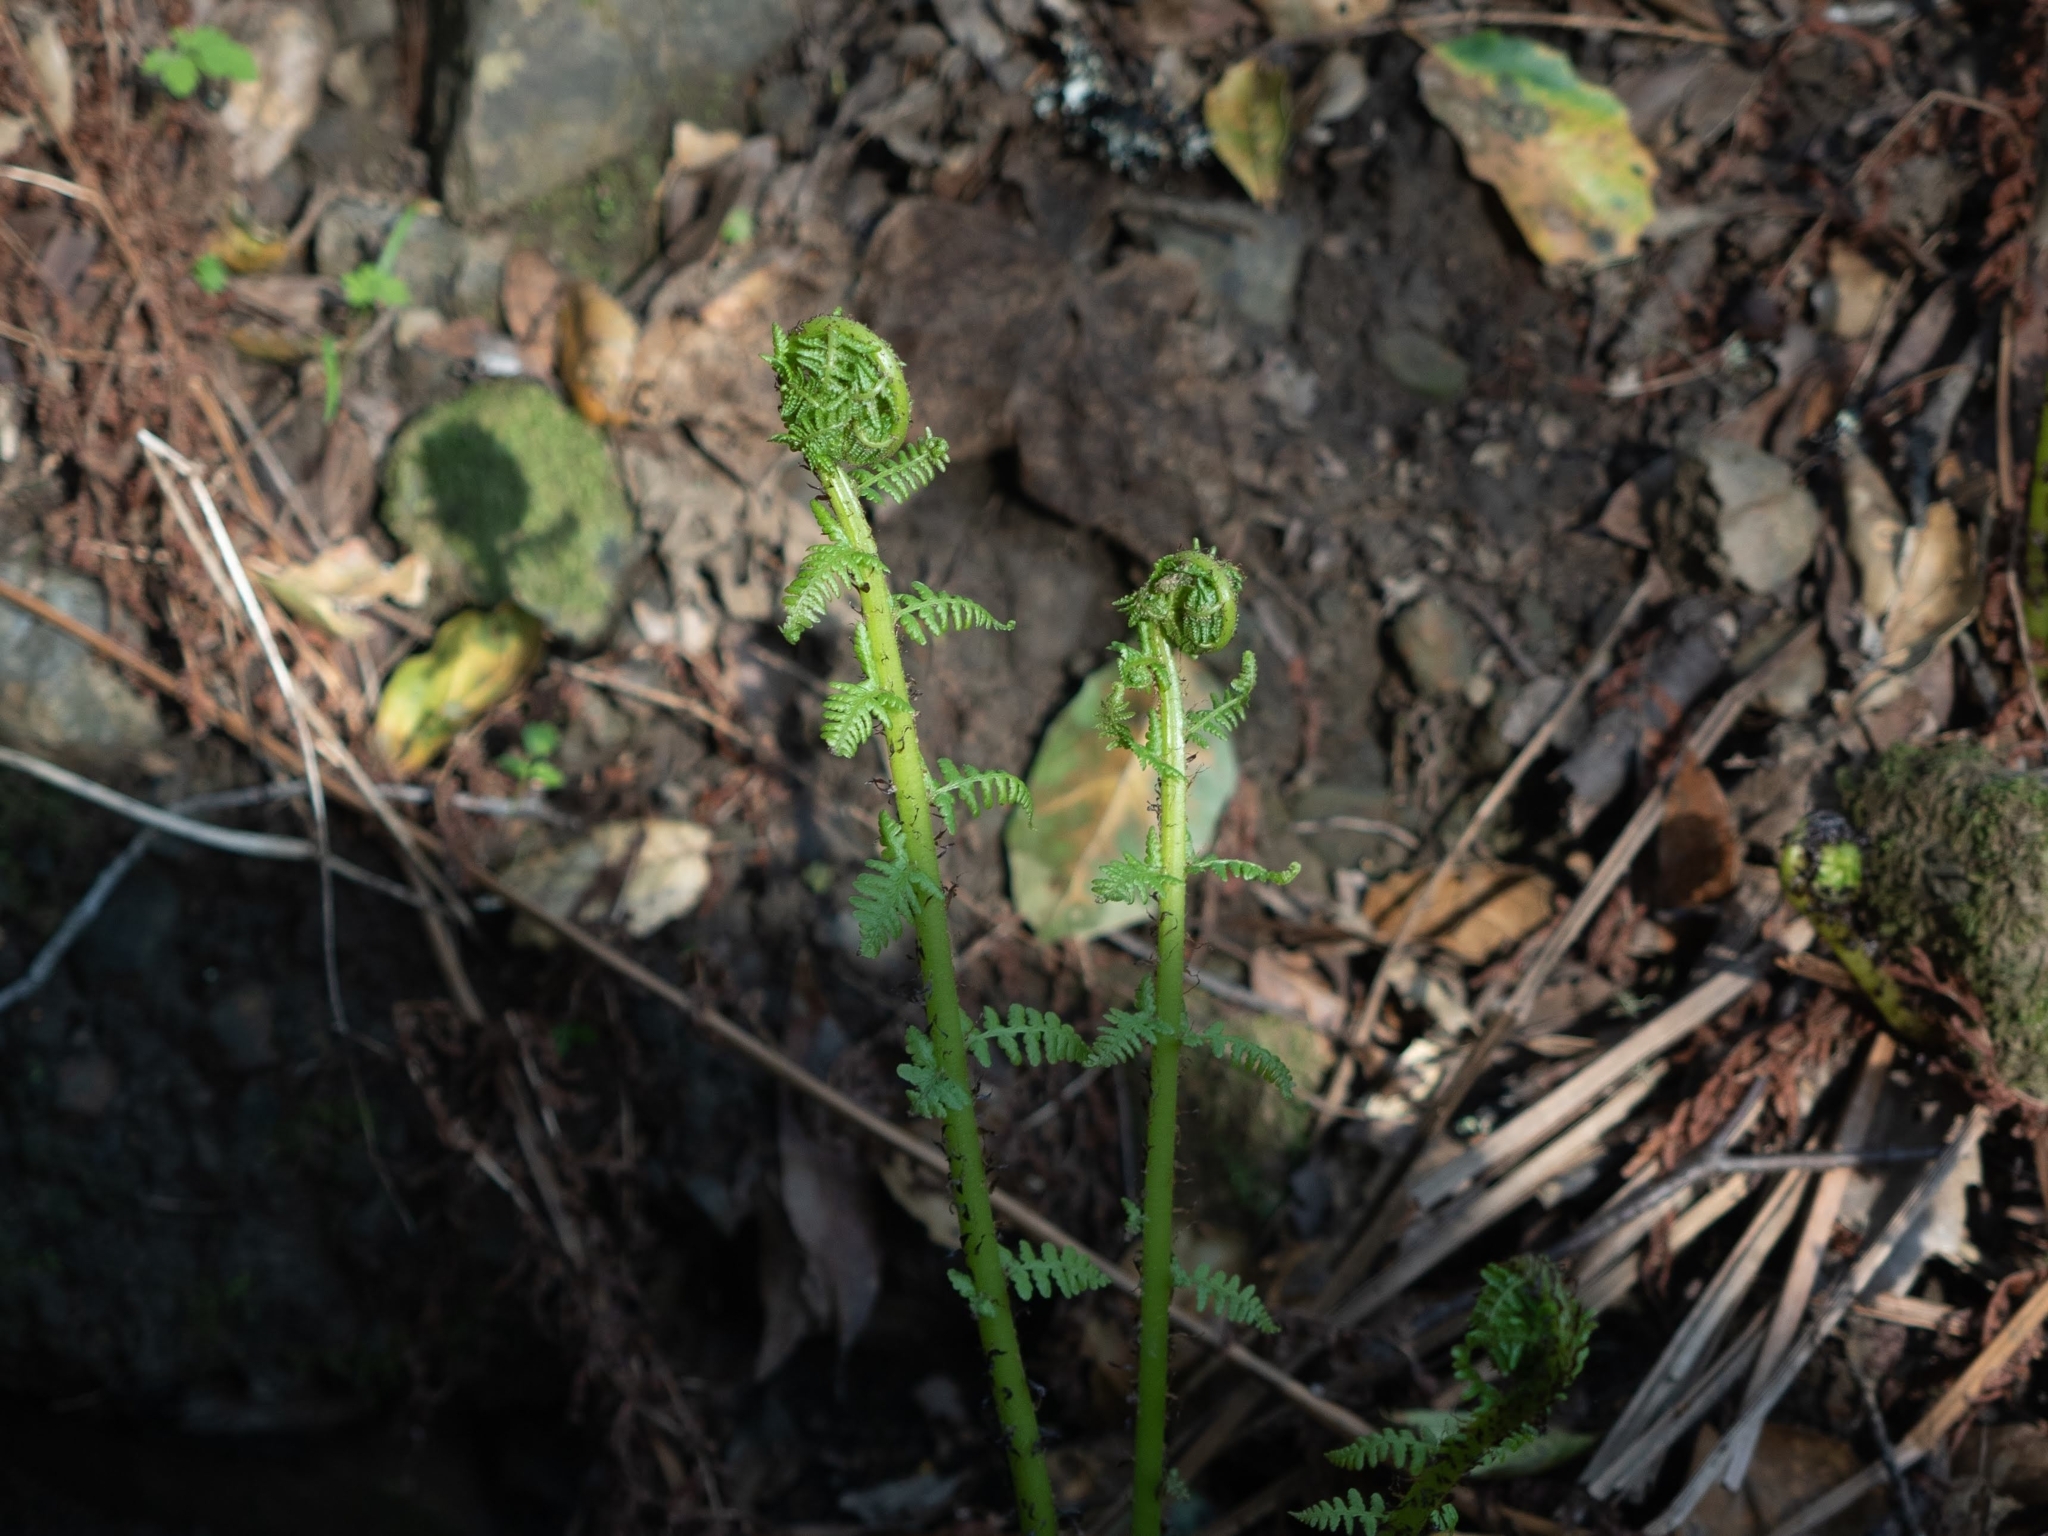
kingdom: Plantae
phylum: Tracheophyta
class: Polypodiopsida
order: Polypodiales
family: Athyriaceae
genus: Athyrium
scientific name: Athyrium filix-femina
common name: Lady fern
